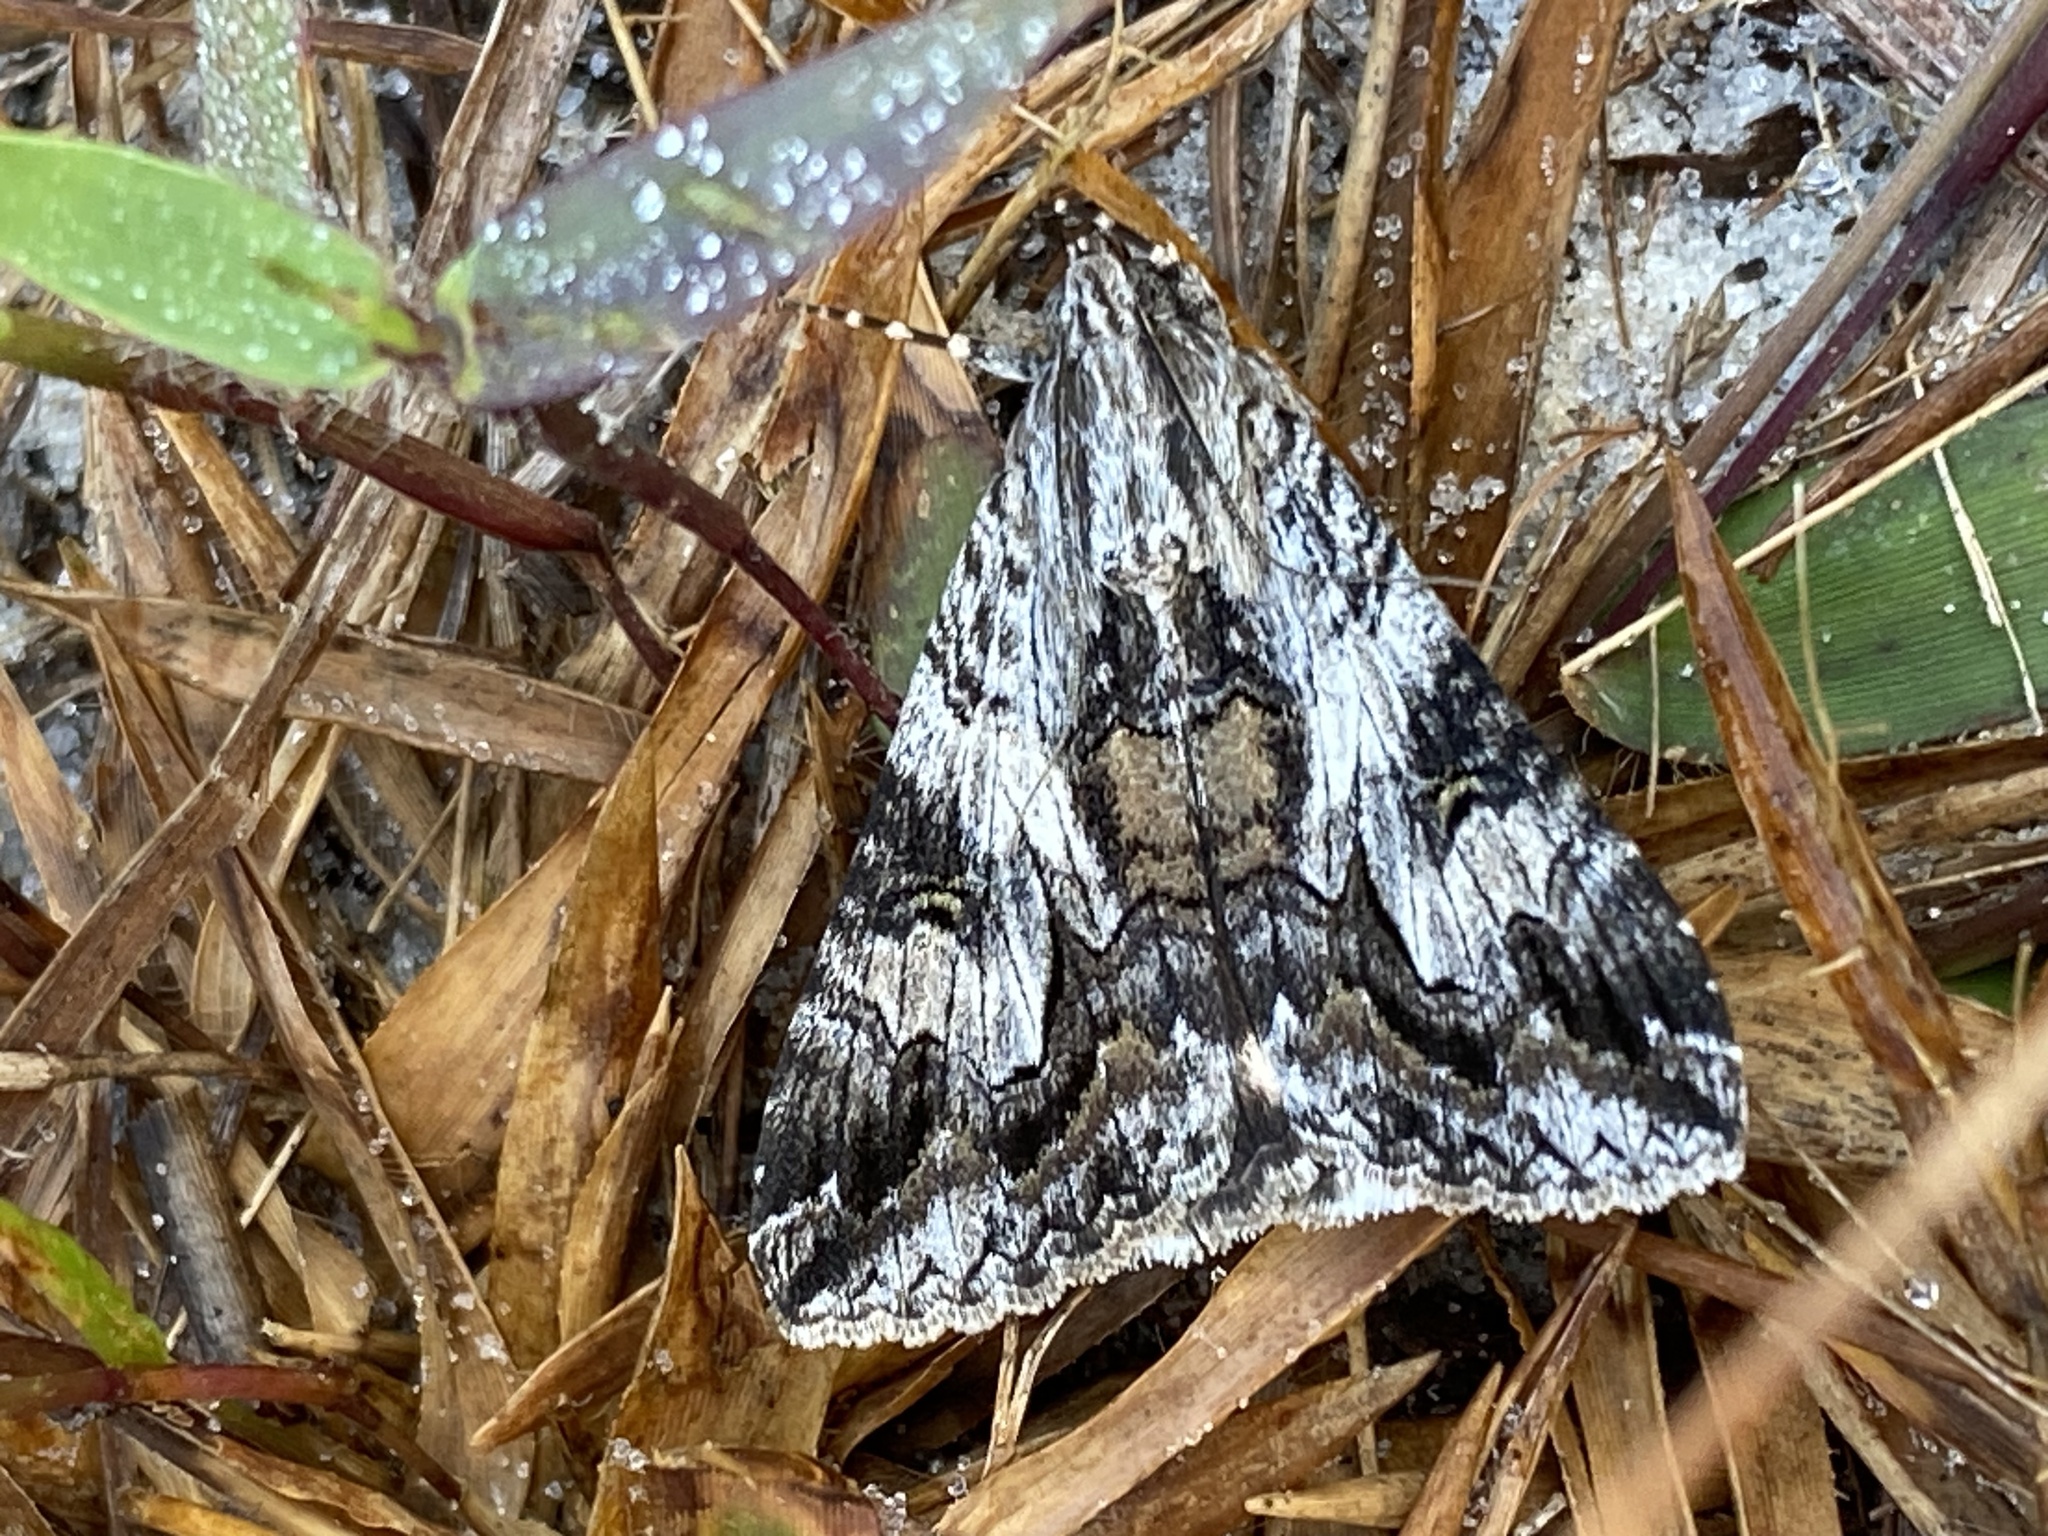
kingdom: Animalia
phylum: Arthropoda
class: Insecta
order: Lepidoptera
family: Erebidae
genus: Melipotis
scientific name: Melipotis jucunda
